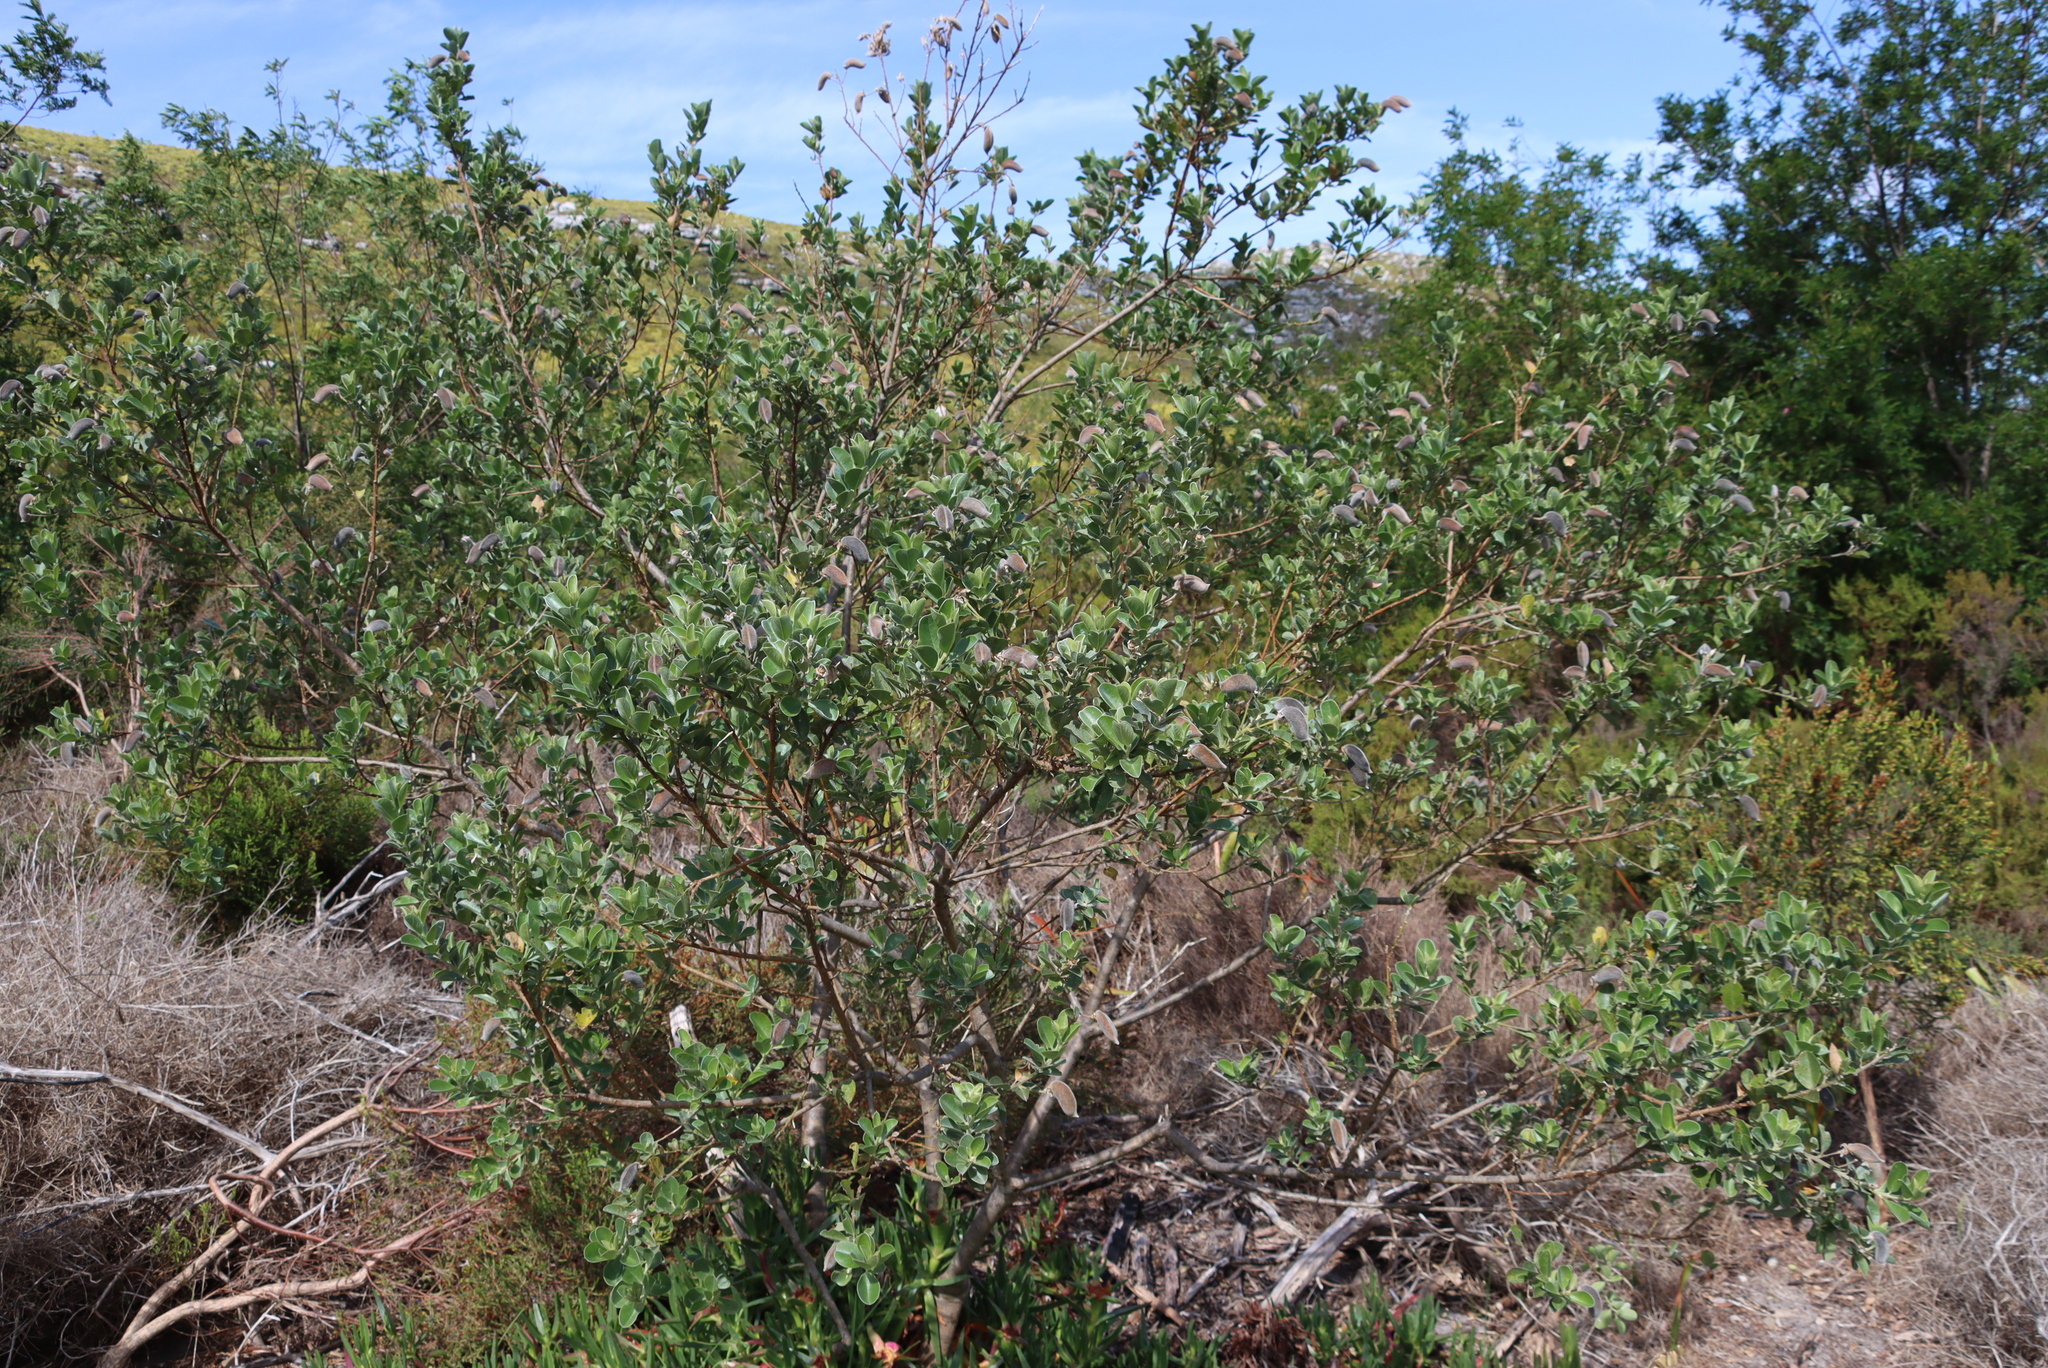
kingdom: Plantae
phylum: Tracheophyta
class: Magnoliopsida
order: Fabales
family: Fabaceae
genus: Podalyria
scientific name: Podalyria calyptrata
